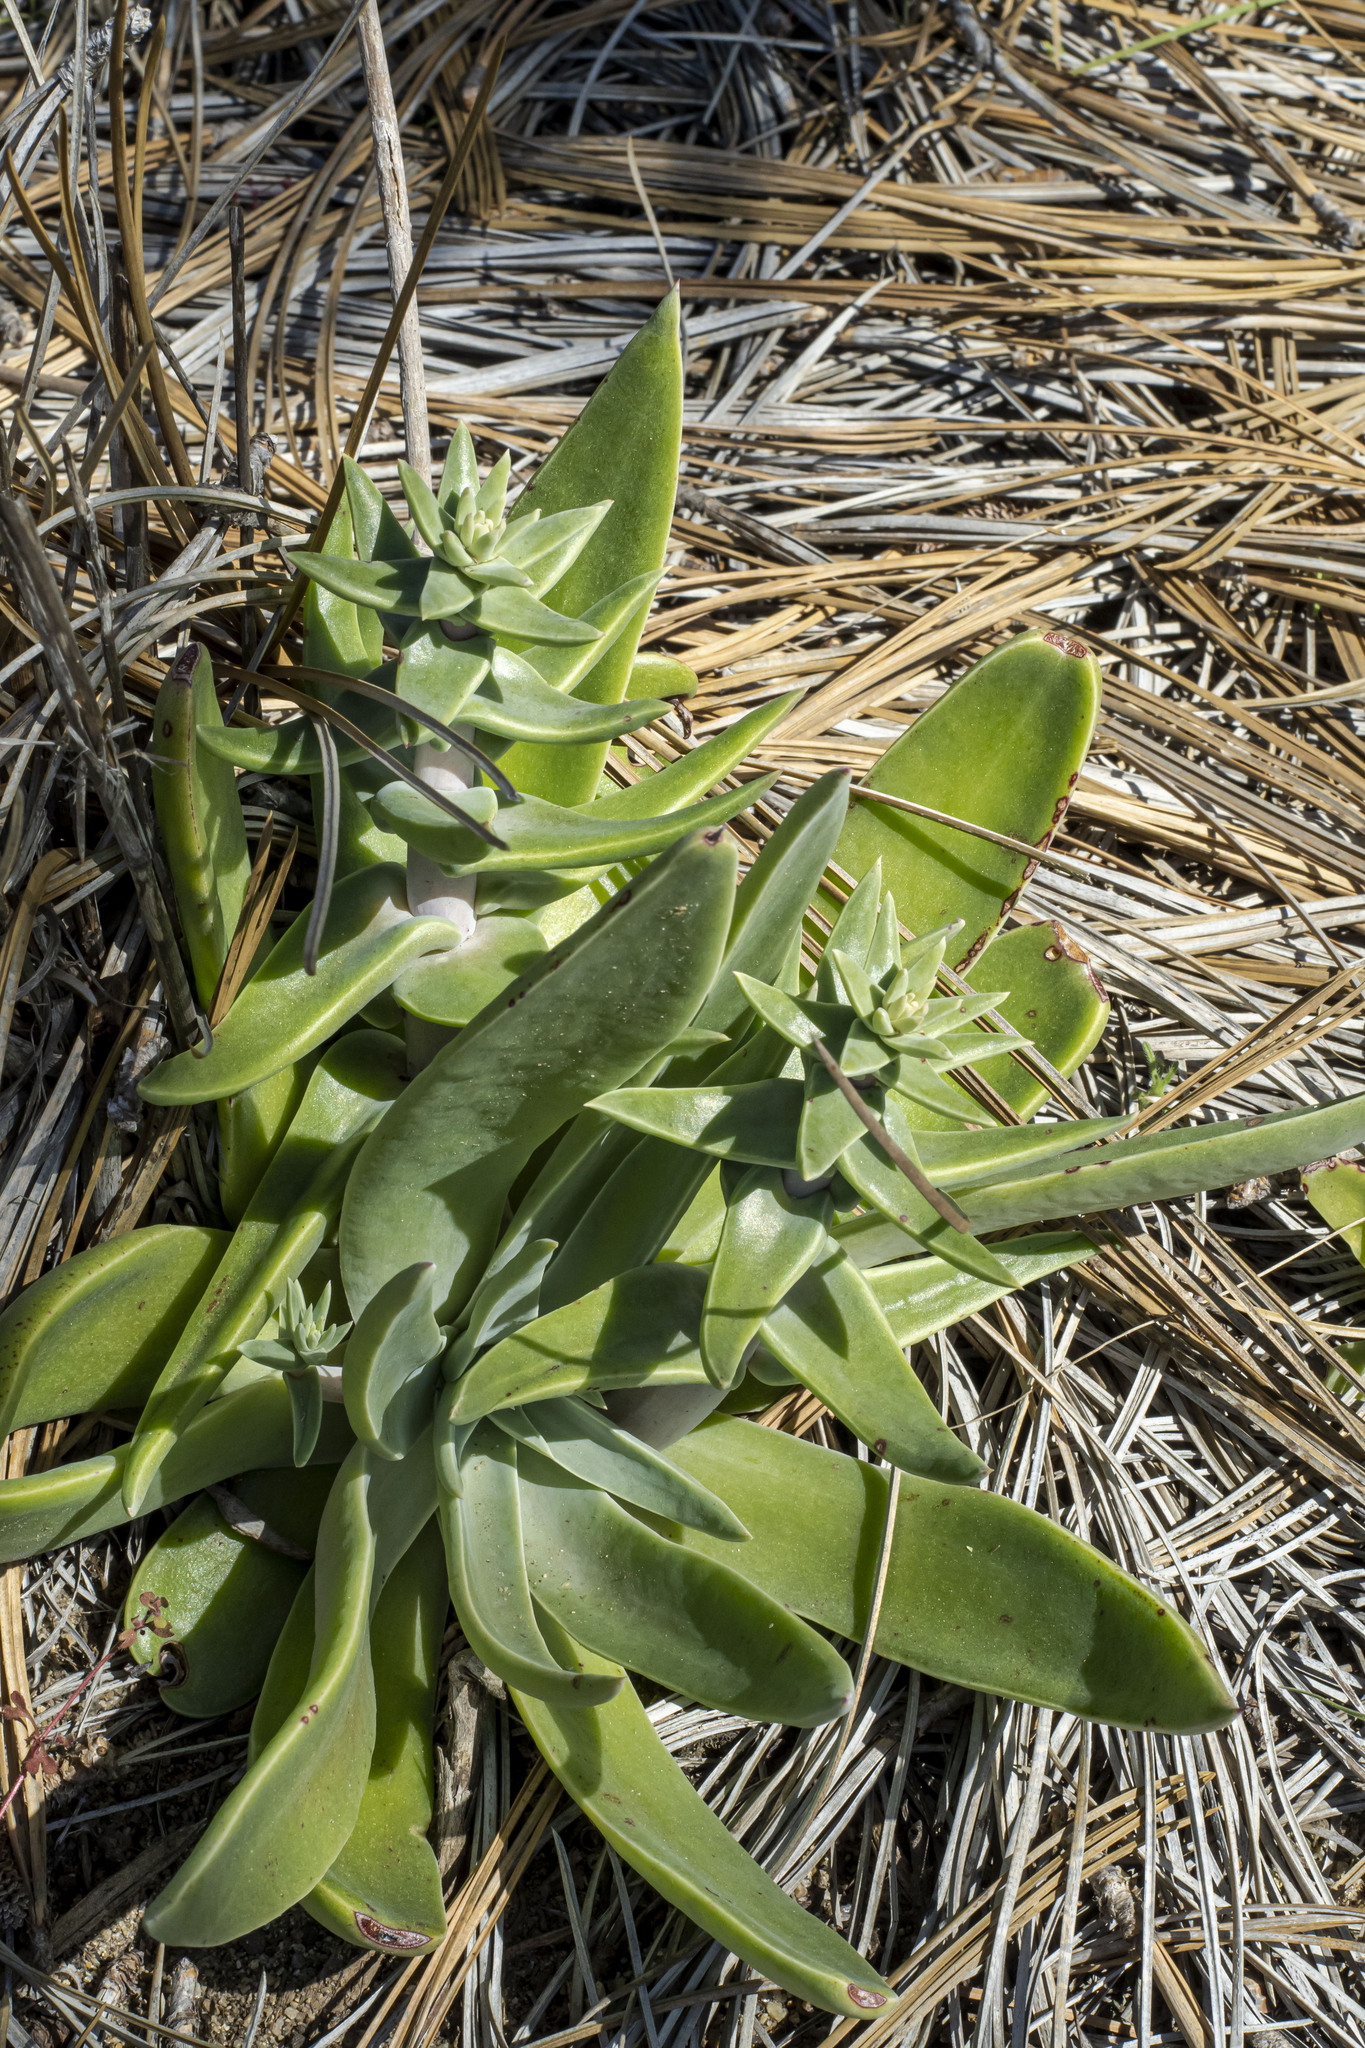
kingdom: Plantae
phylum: Tracheophyta
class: Magnoliopsida
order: Saxifragales
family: Crassulaceae
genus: Dudleya
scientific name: Dudleya lanceolata
